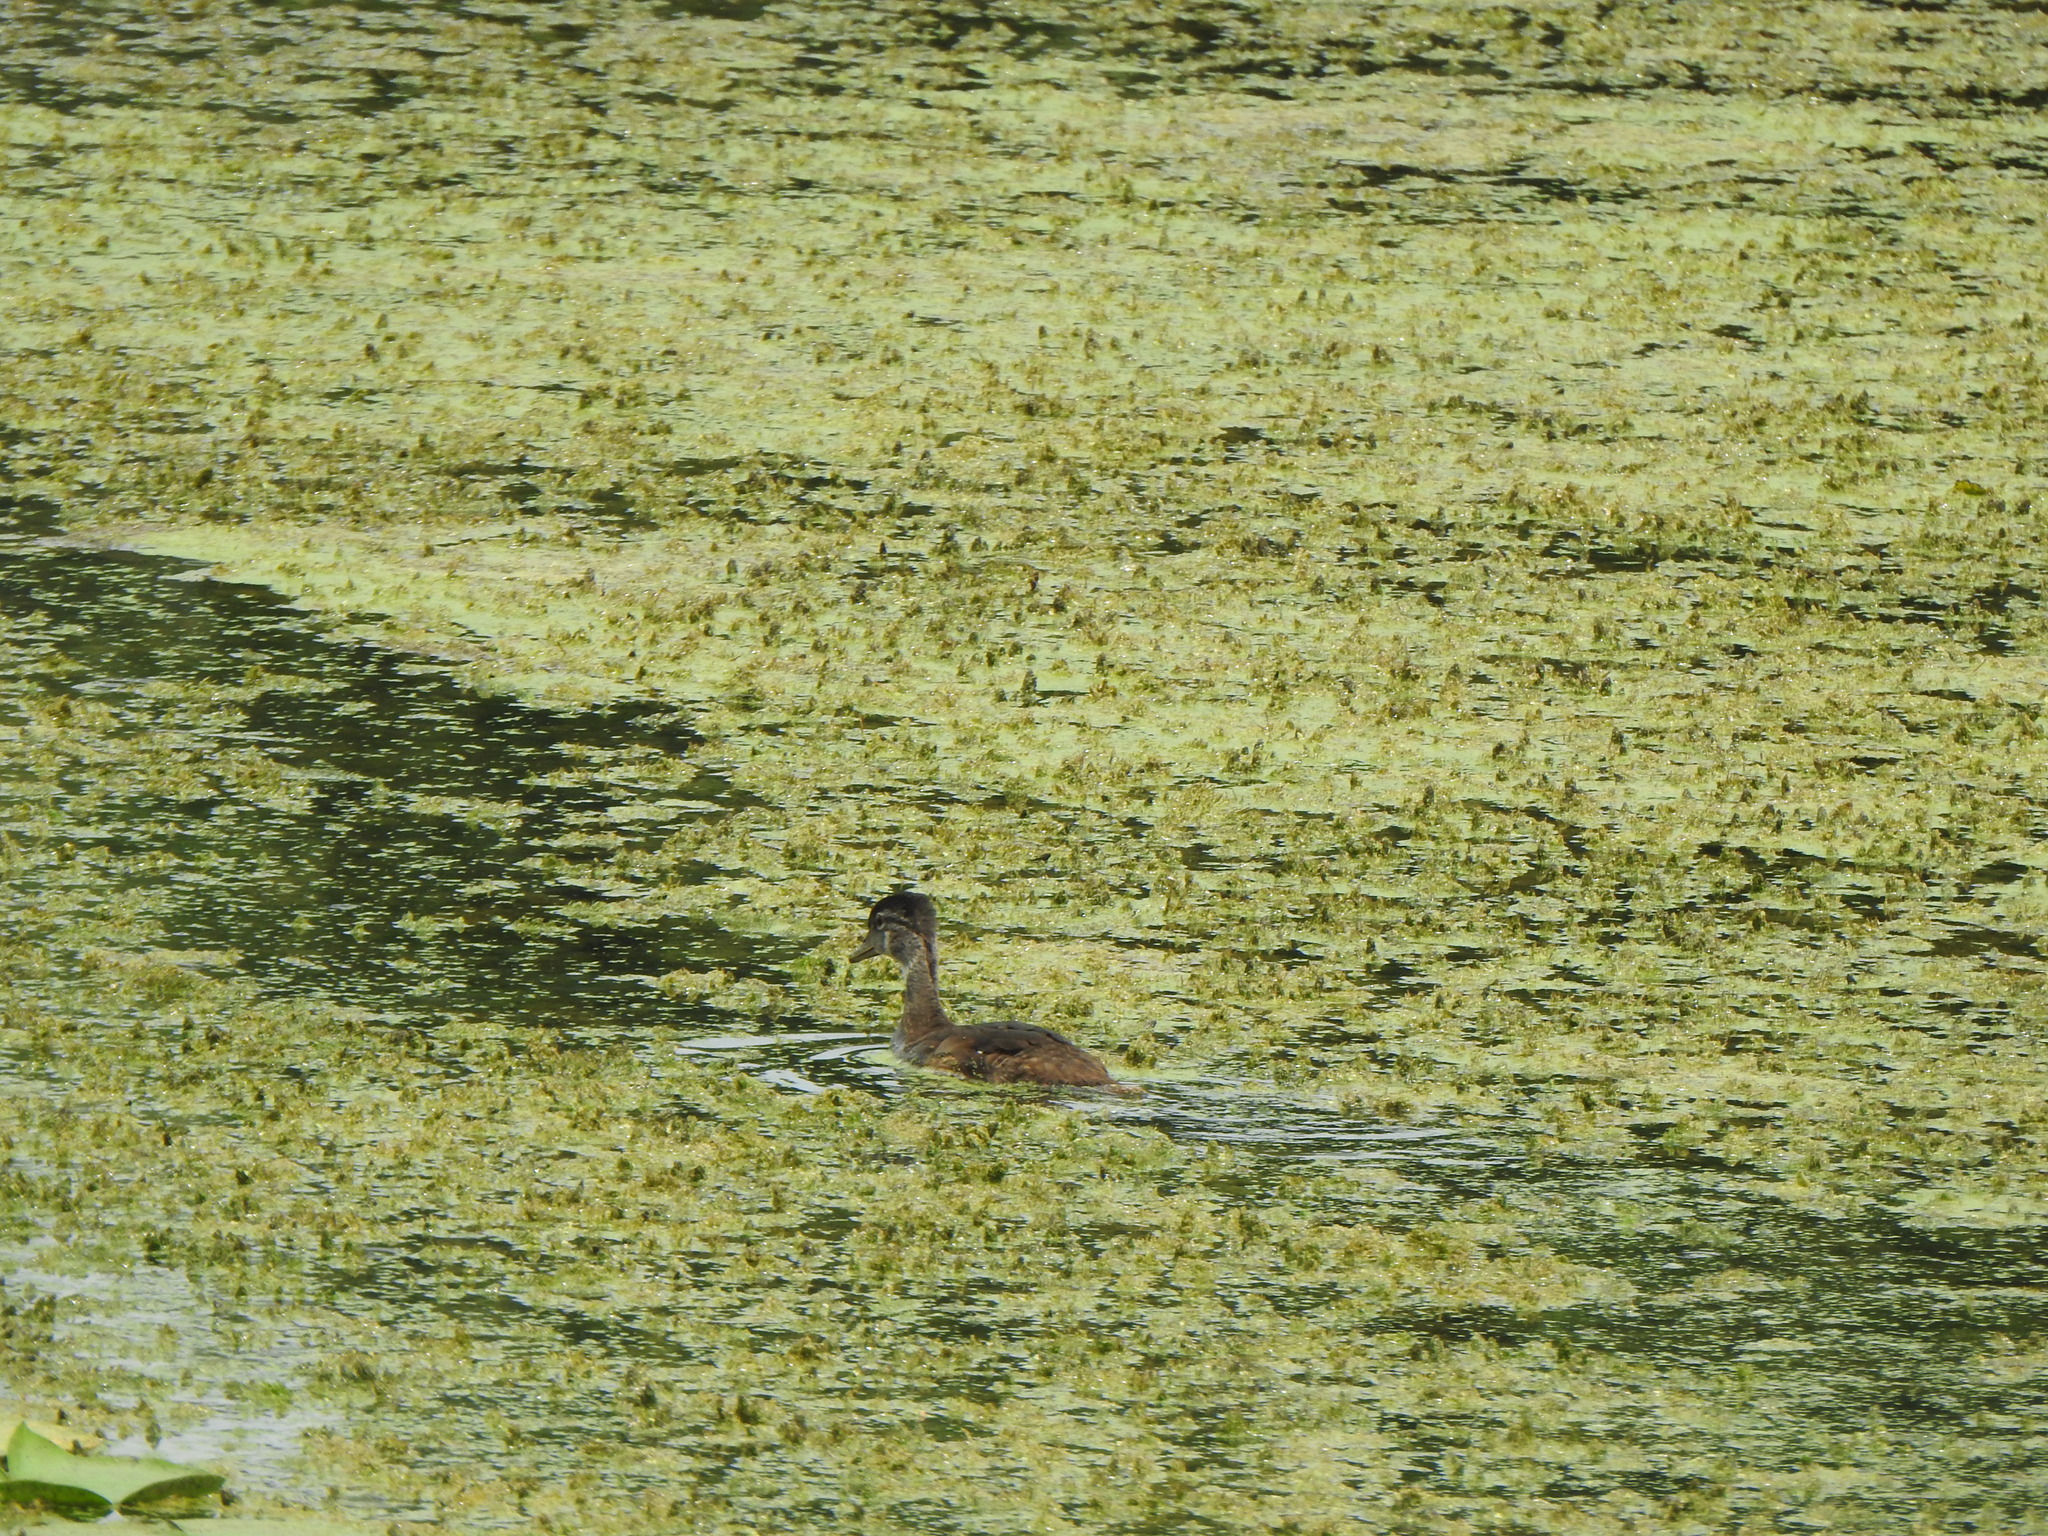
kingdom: Animalia
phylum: Chordata
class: Aves
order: Anseriformes
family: Anatidae
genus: Aix
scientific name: Aix sponsa
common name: Wood duck
